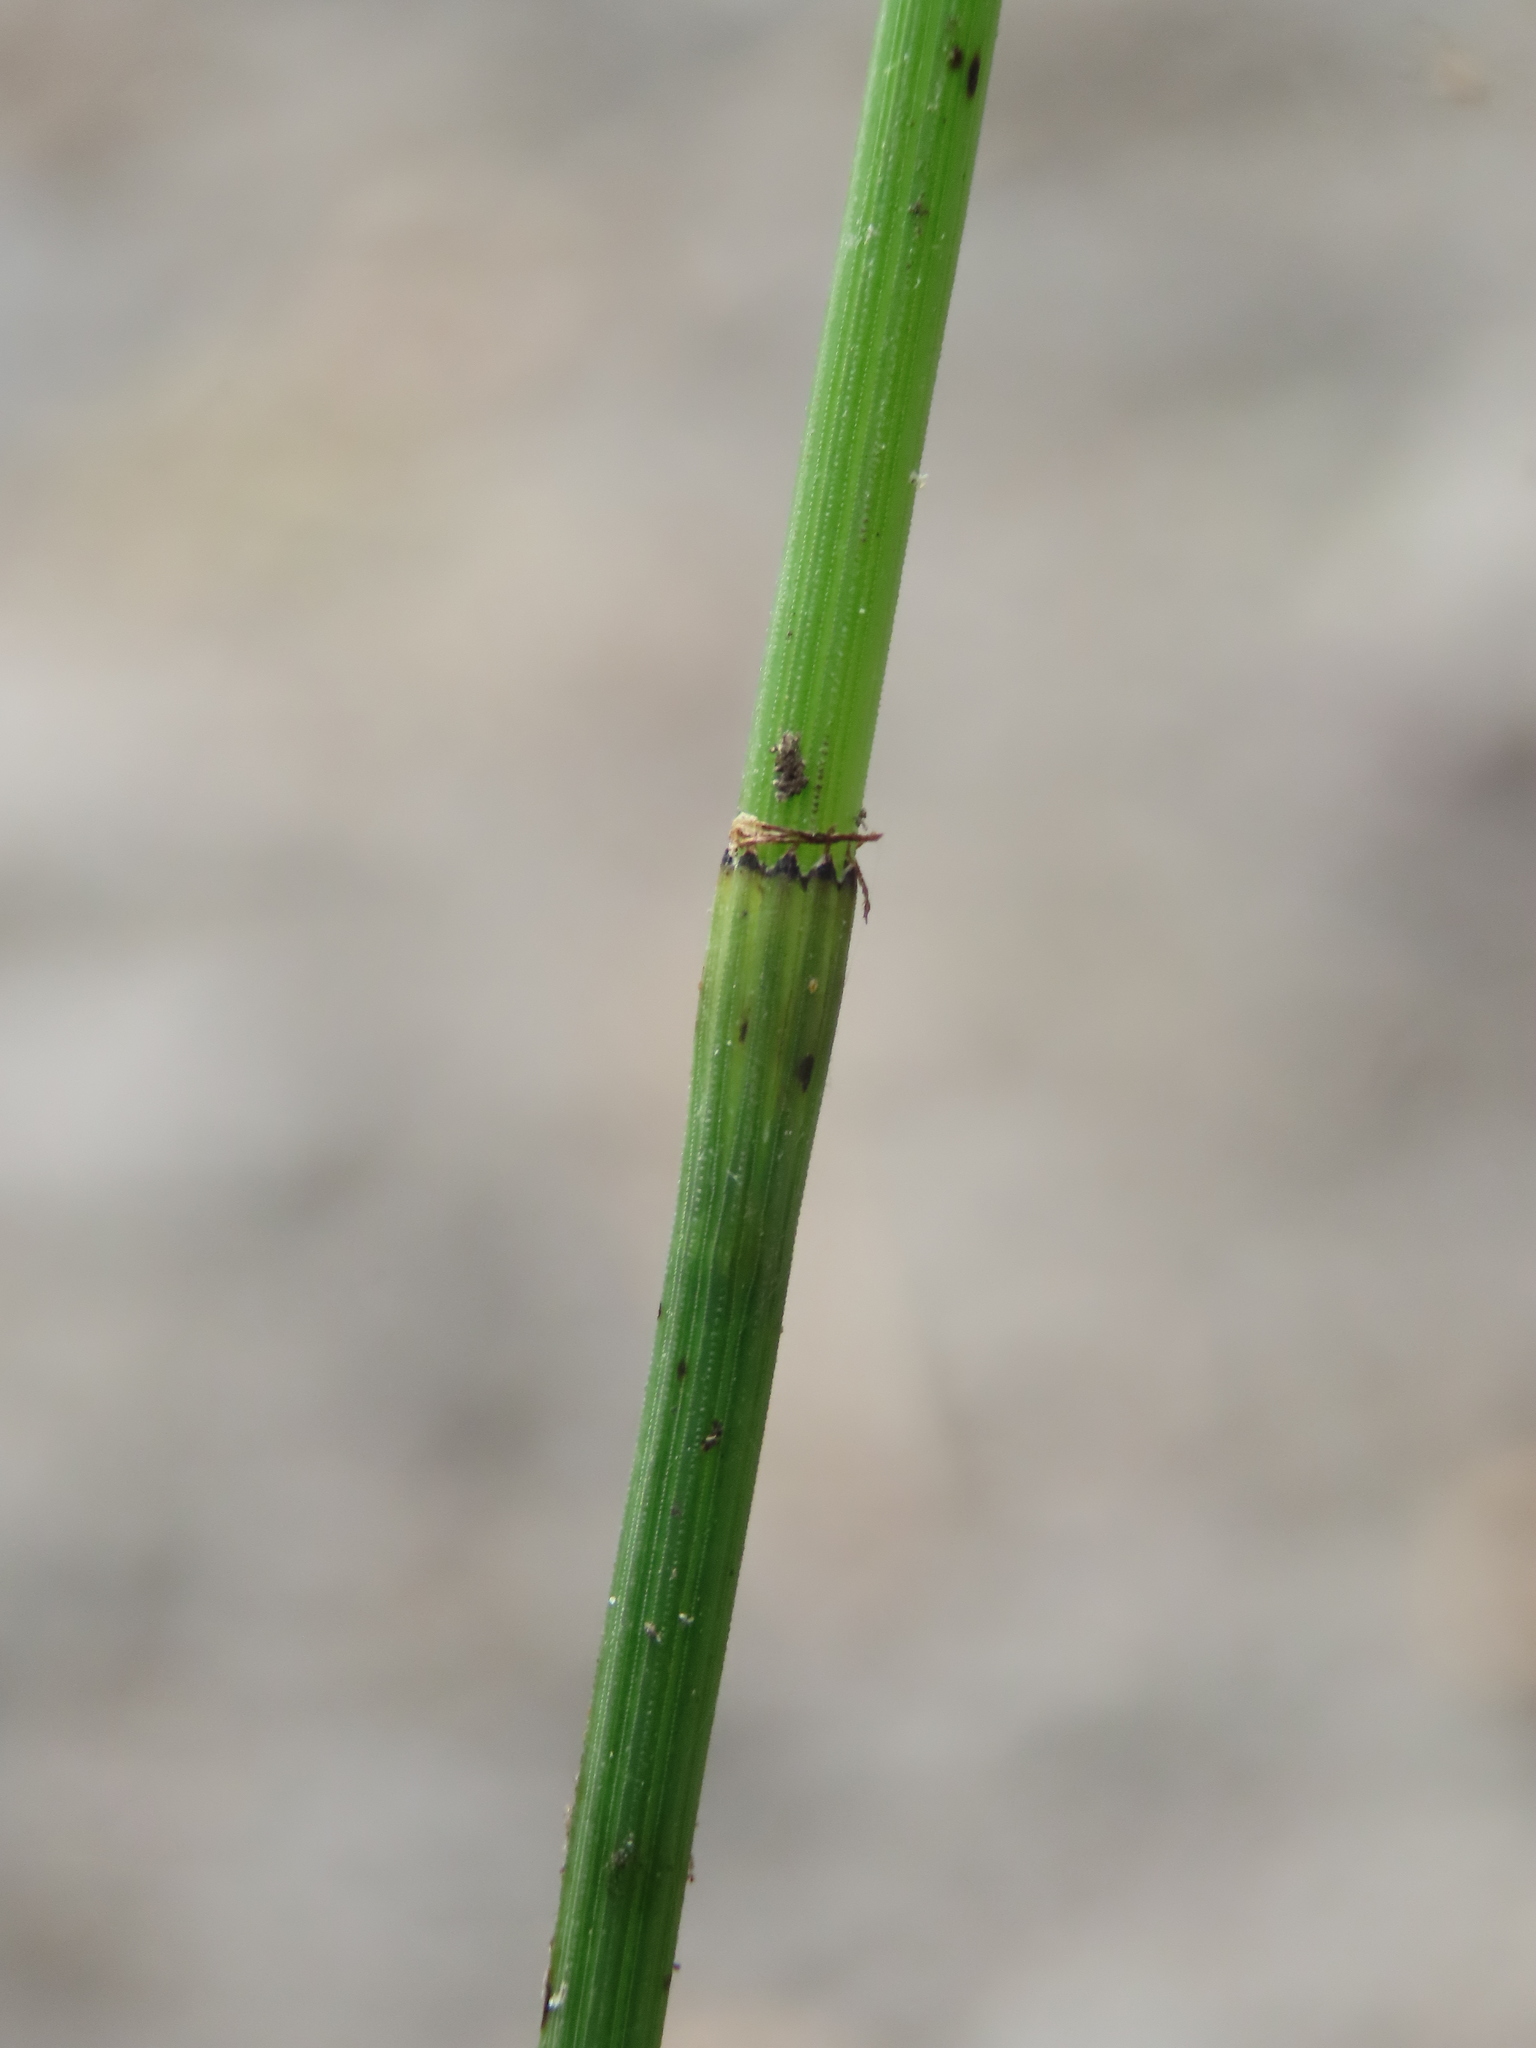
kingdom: Plantae
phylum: Tracheophyta
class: Polypodiopsida
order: Equisetales
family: Equisetaceae
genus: Equisetum
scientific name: Equisetum ramosissimum
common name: Branched horsetail
